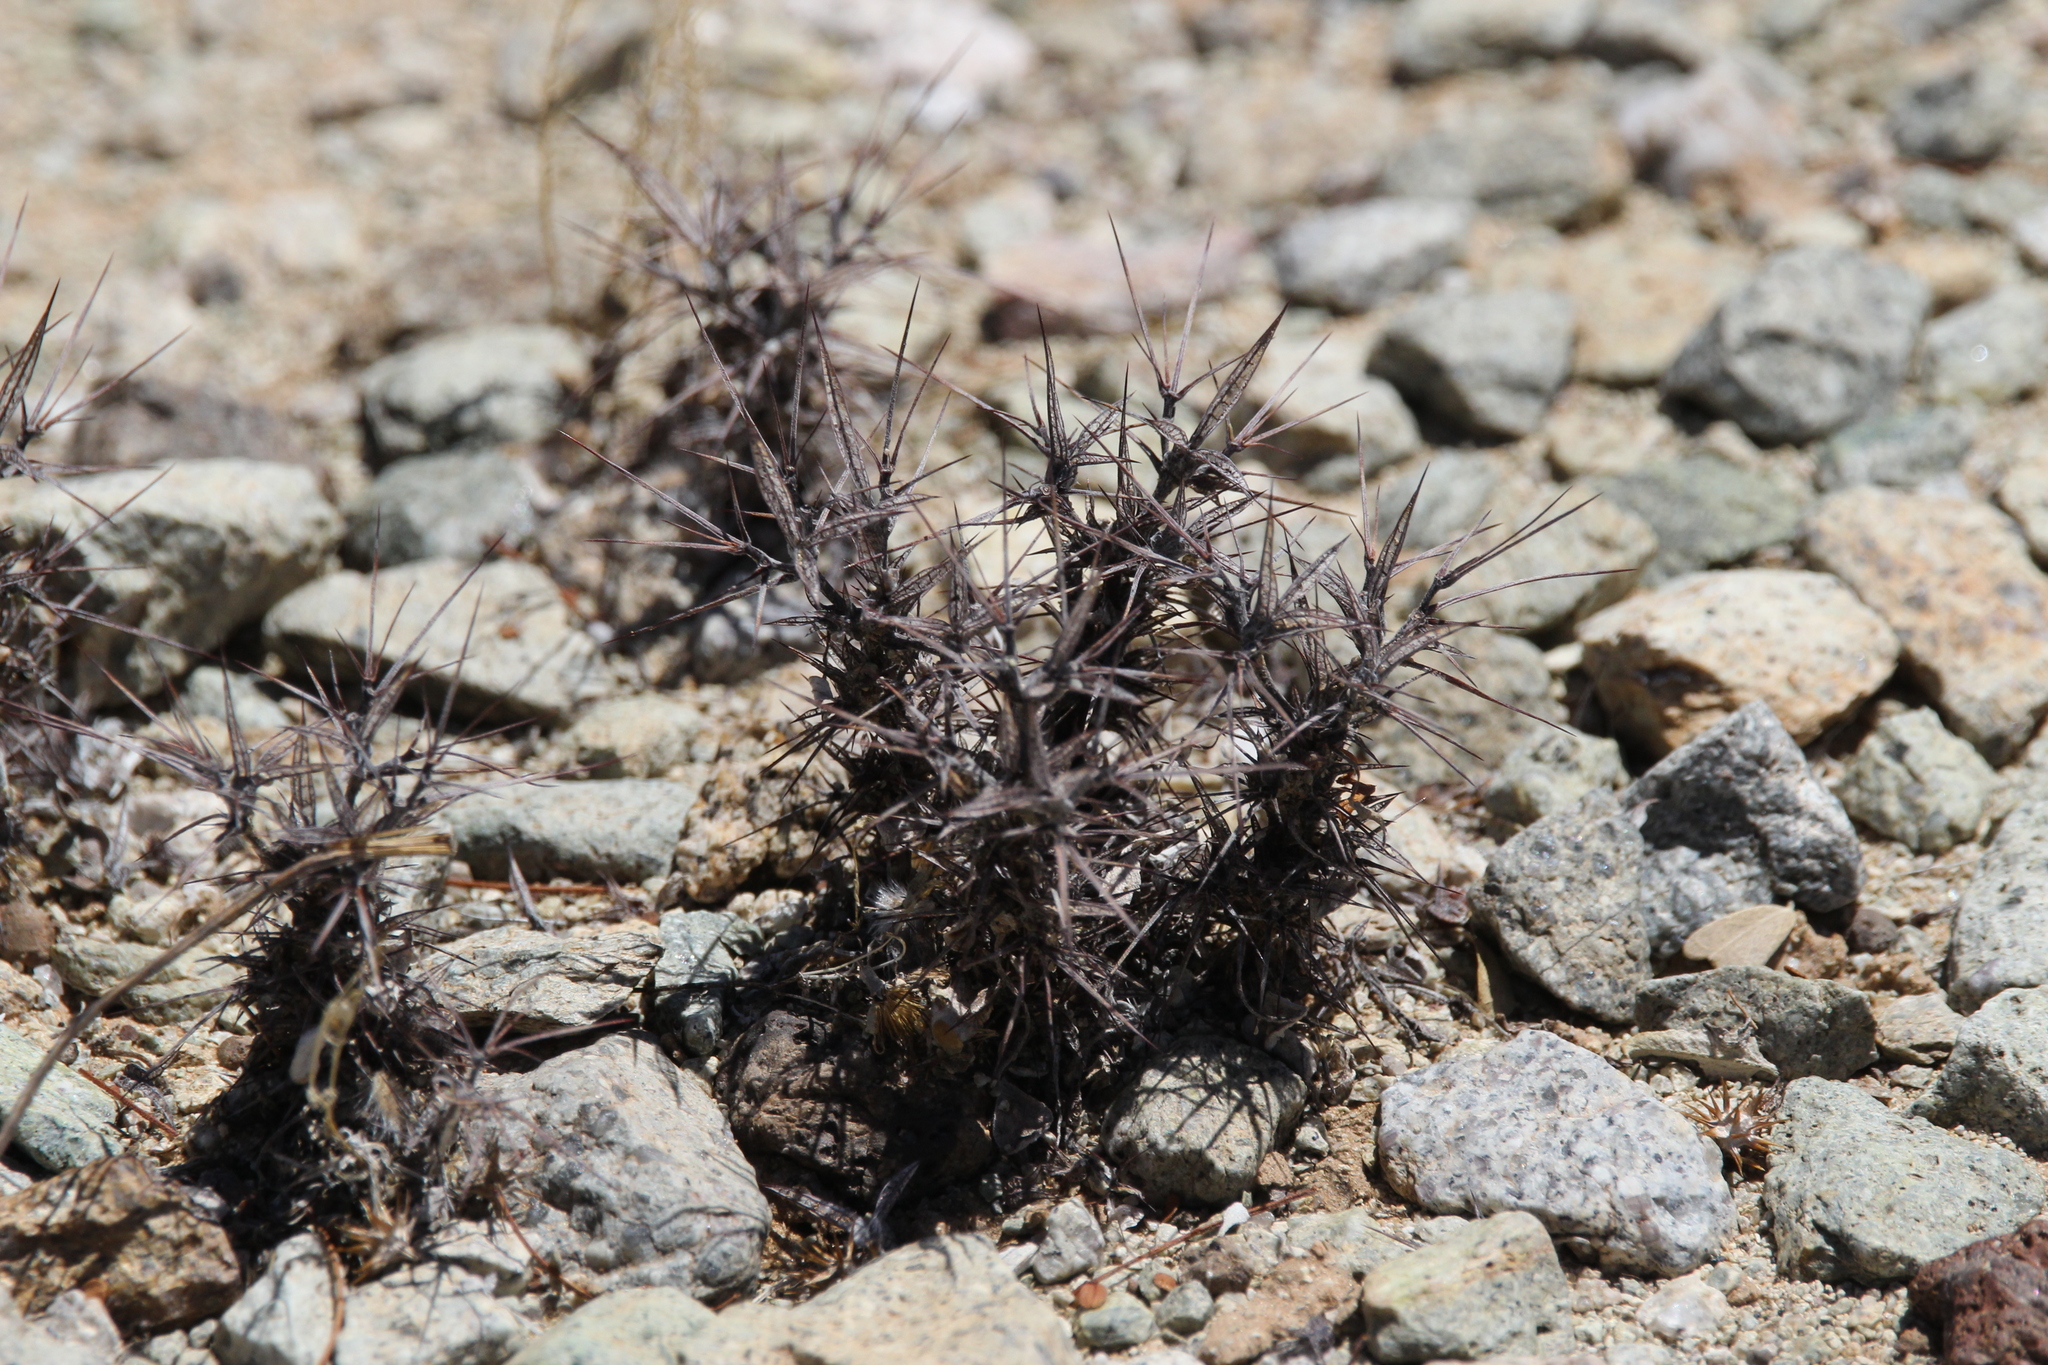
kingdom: Plantae
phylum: Tracheophyta
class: Magnoliopsida
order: Caryophyllales
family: Polygonaceae
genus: Chorizanthe
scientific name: Chorizanthe rigida
